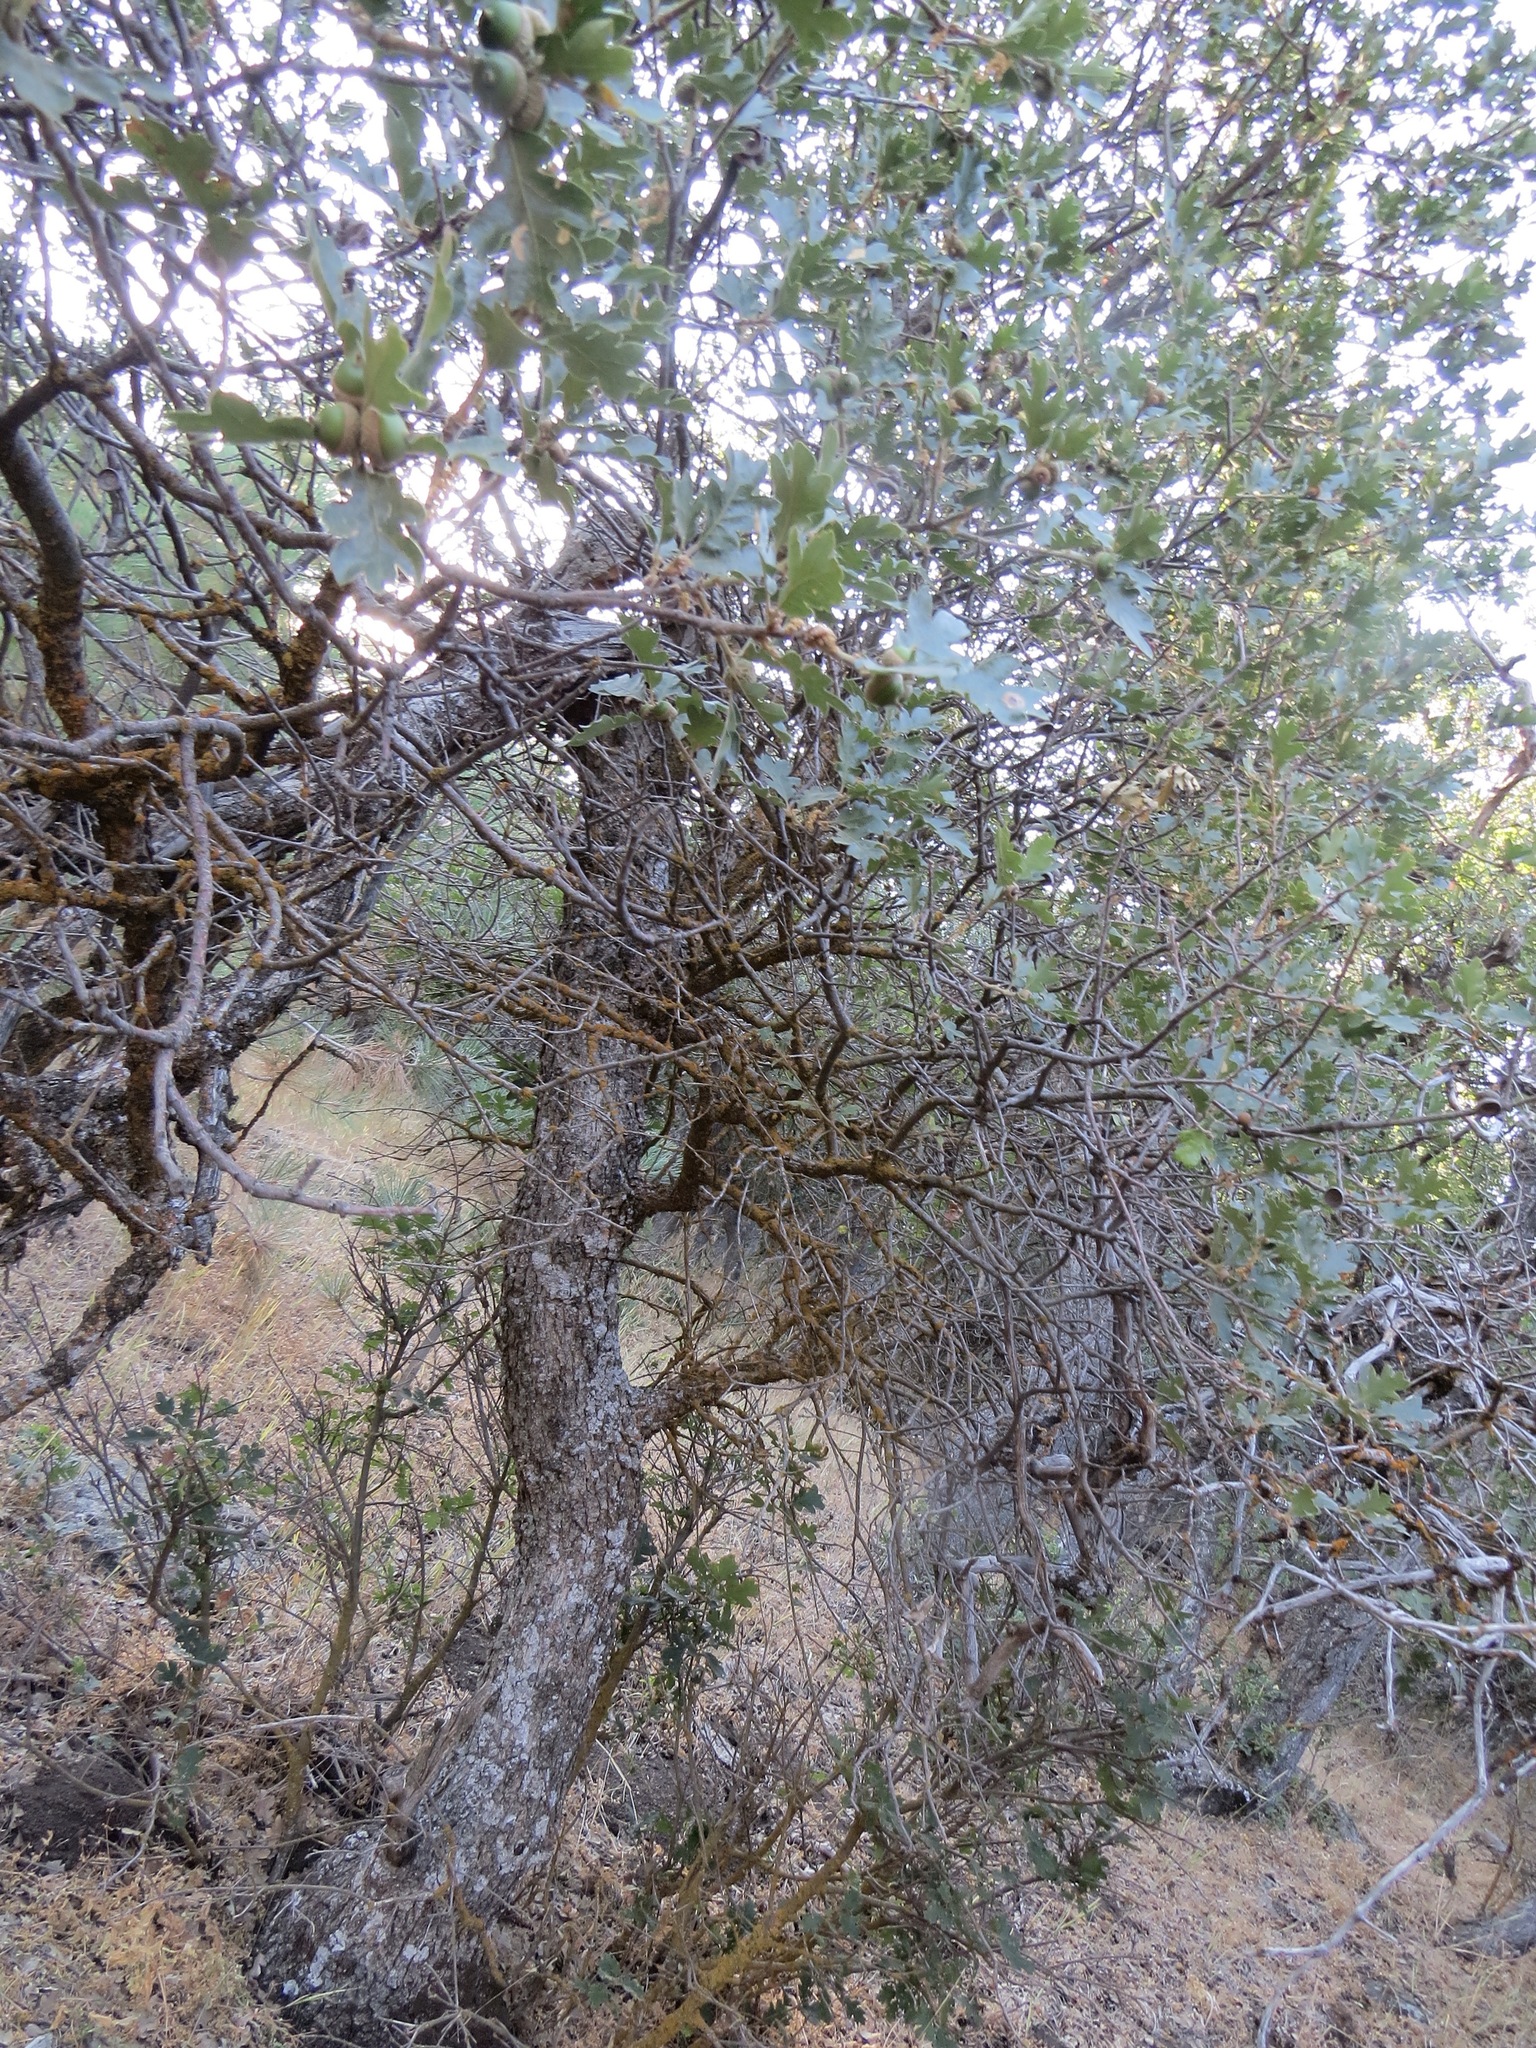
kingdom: Plantae
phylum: Tracheophyta
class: Magnoliopsida
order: Fagales
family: Fagaceae
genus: Quercus
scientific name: Quercus garryana
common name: Garry oak
